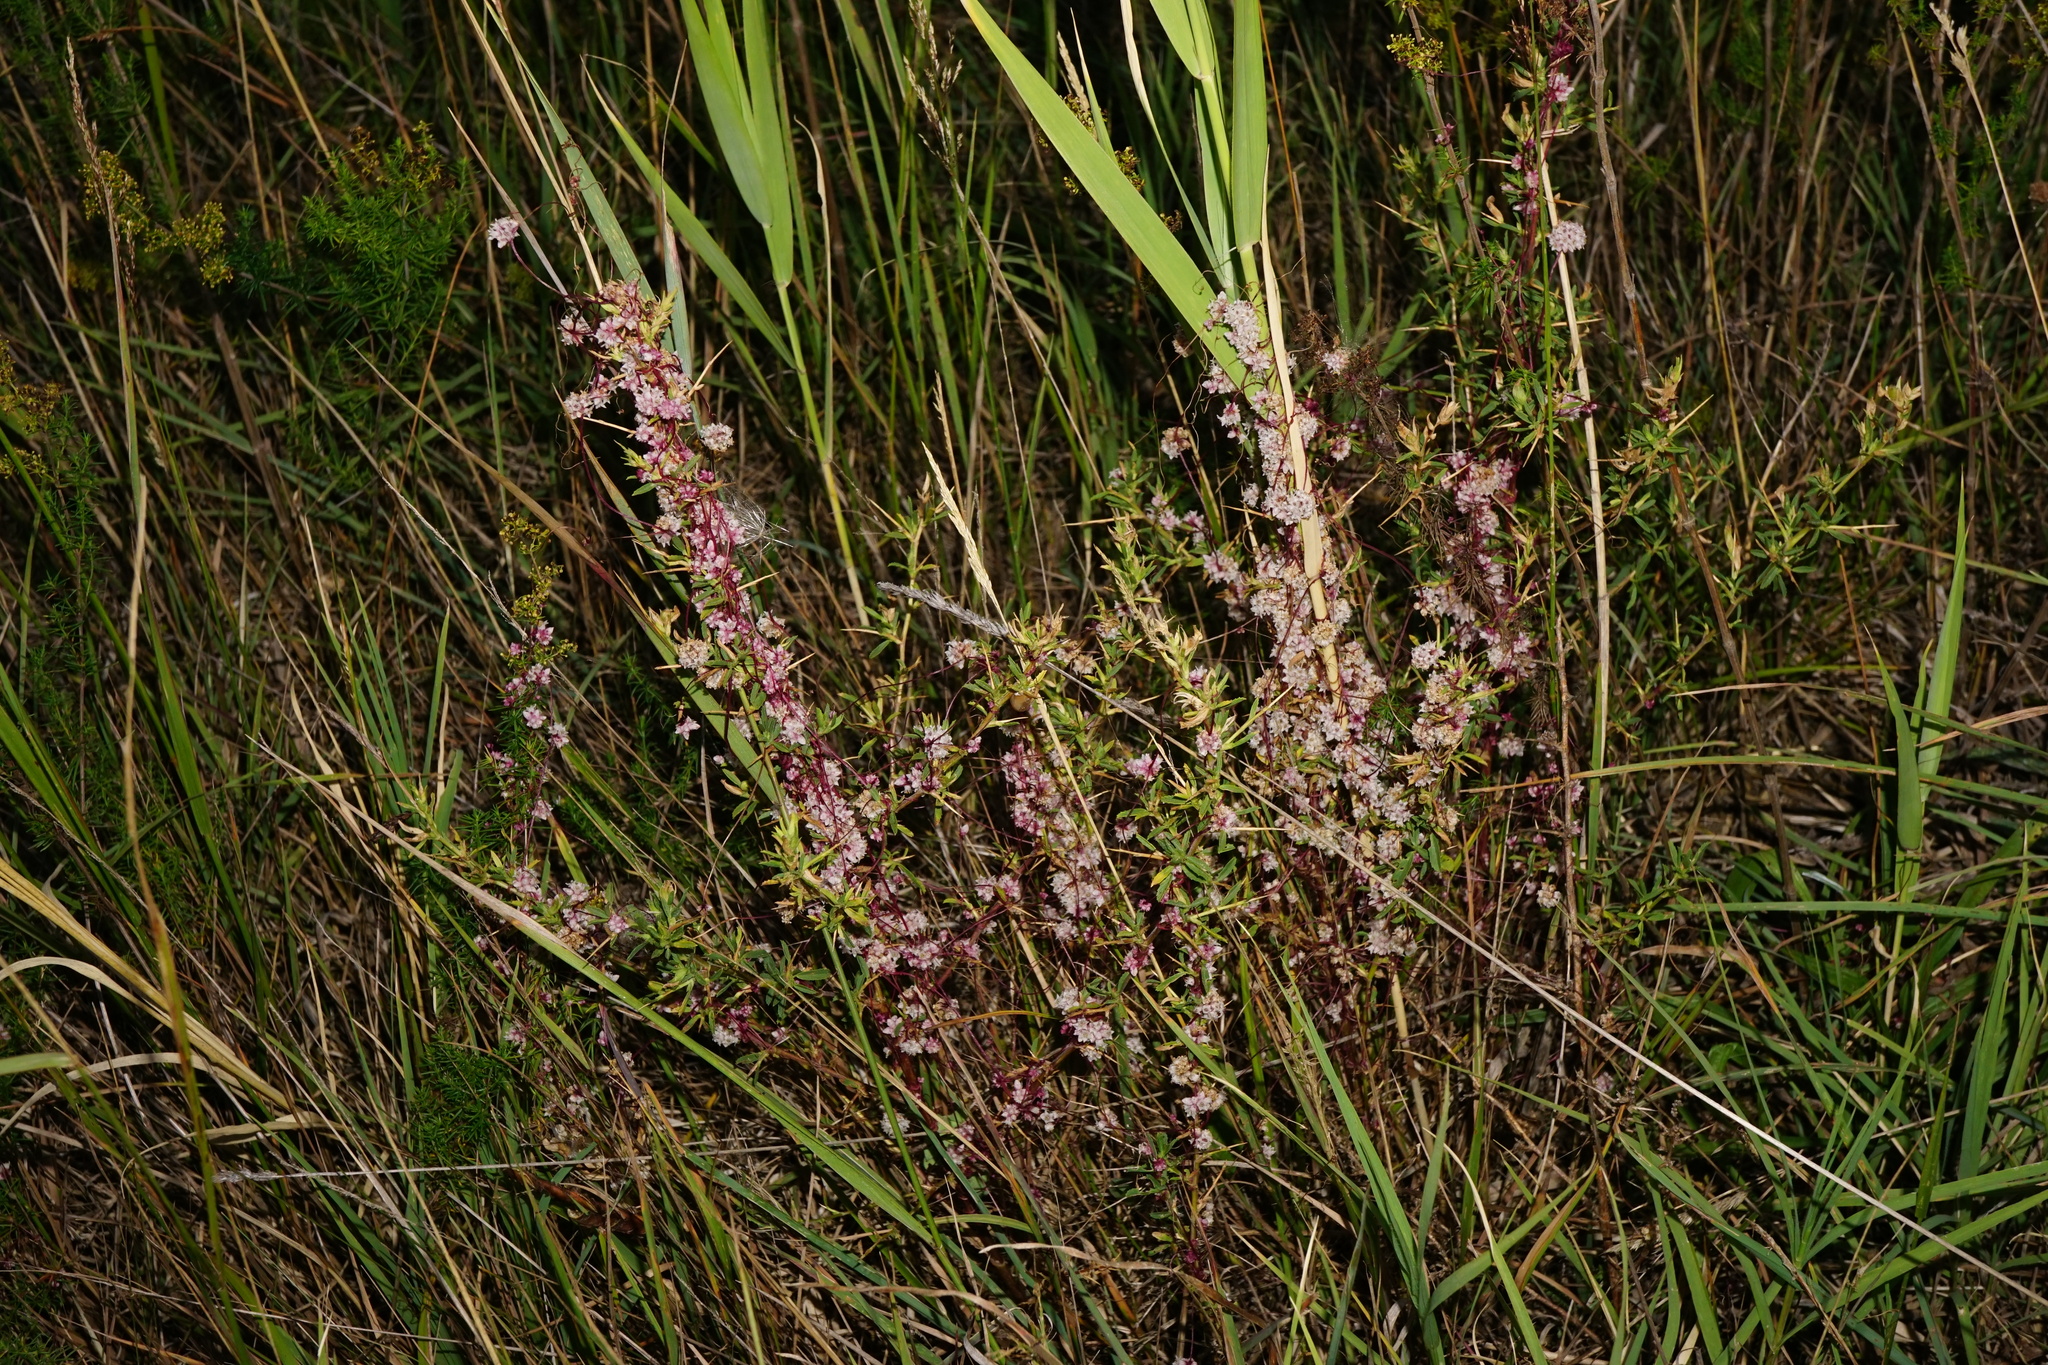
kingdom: Plantae
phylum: Tracheophyta
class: Magnoliopsida
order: Solanales
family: Convolvulaceae
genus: Cuscuta
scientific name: Cuscuta epithymum
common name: Clover dodder
